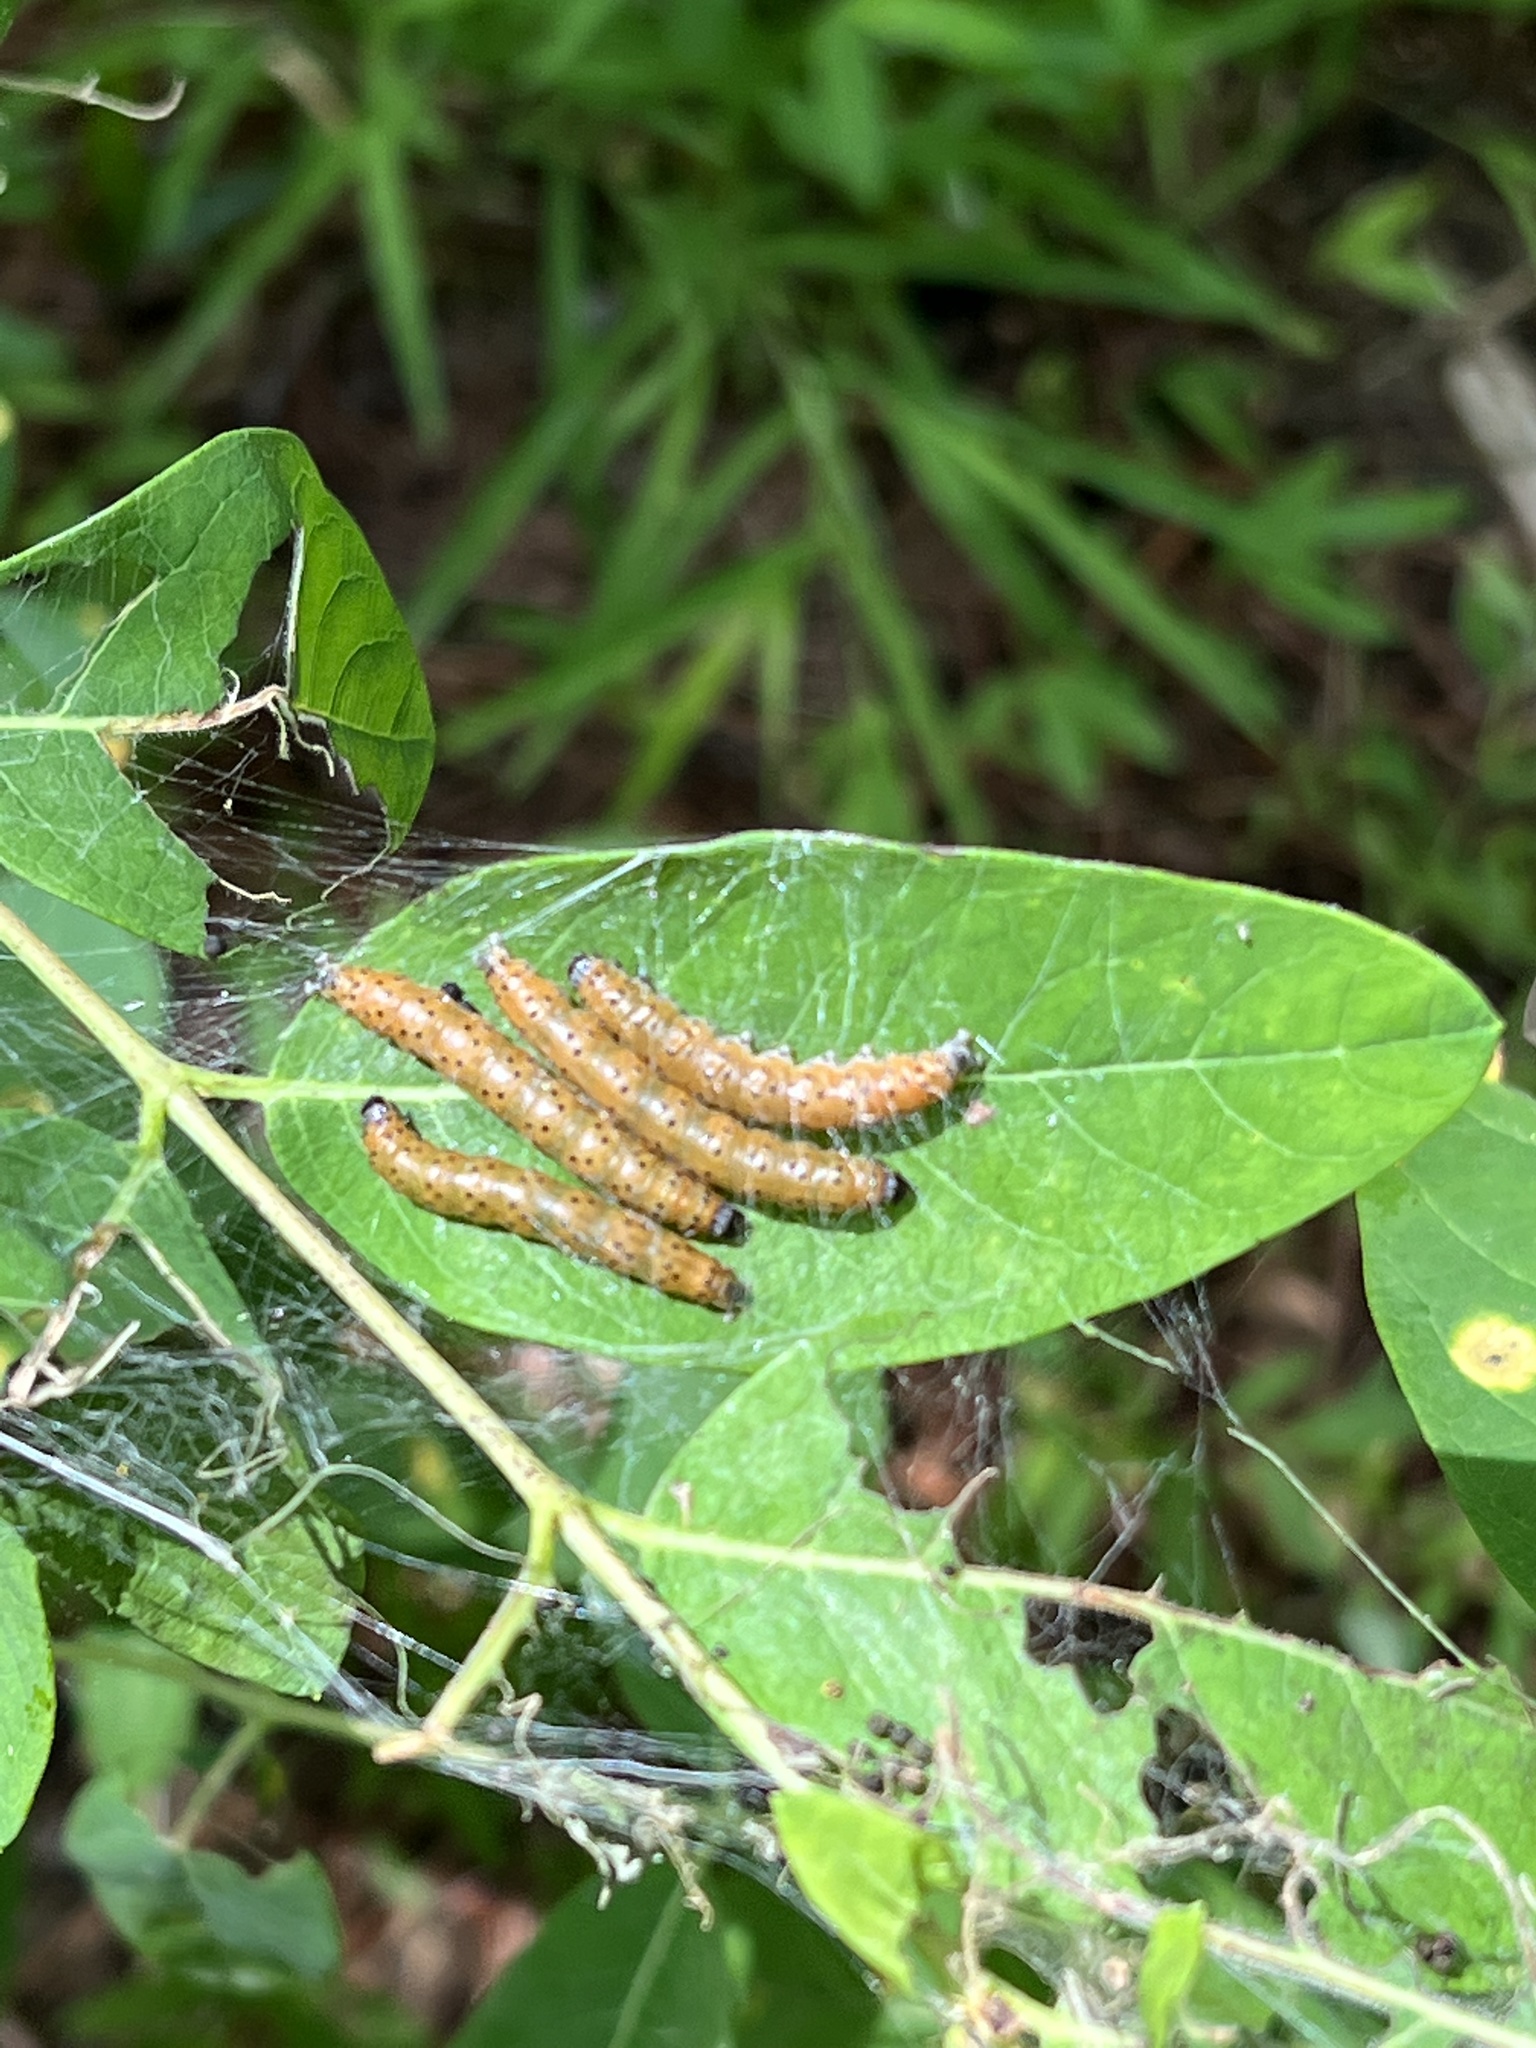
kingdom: Animalia
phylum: Arthropoda
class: Insecta
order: Lepidoptera
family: Crambidae
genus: Saucrobotys
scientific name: Saucrobotys futilalis
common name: Dogbane saucrobotys moth
